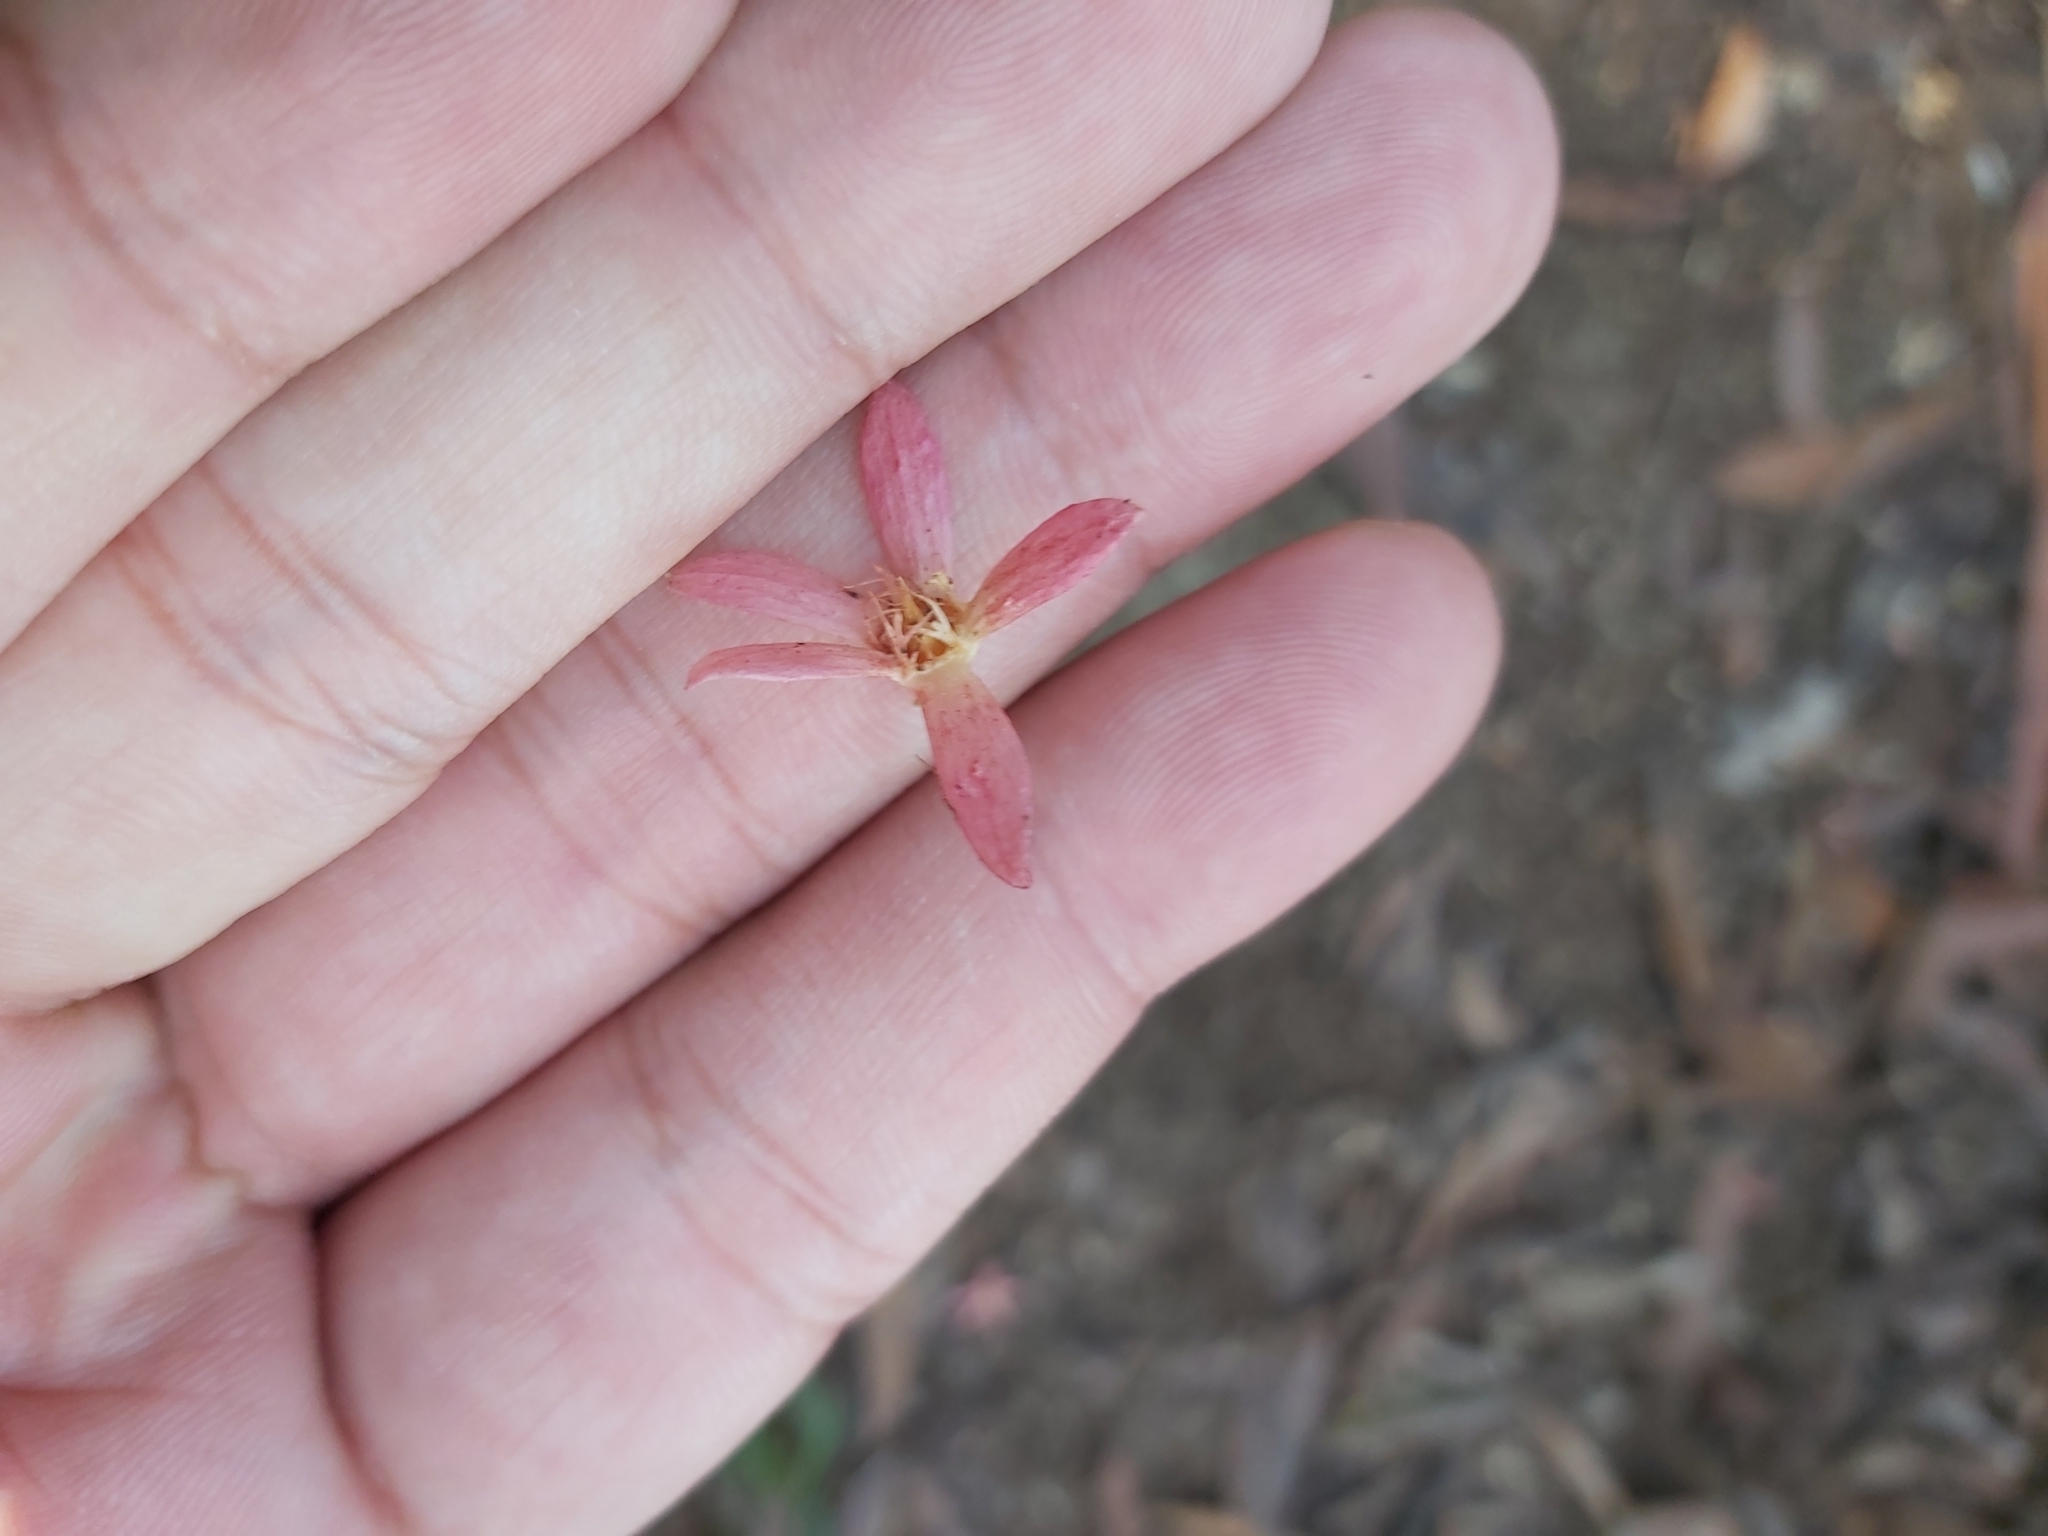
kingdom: Plantae
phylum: Tracheophyta
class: Magnoliopsida
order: Oxalidales
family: Cunoniaceae
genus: Ceratopetalum
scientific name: Ceratopetalum gummiferum
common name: Christmasbush
